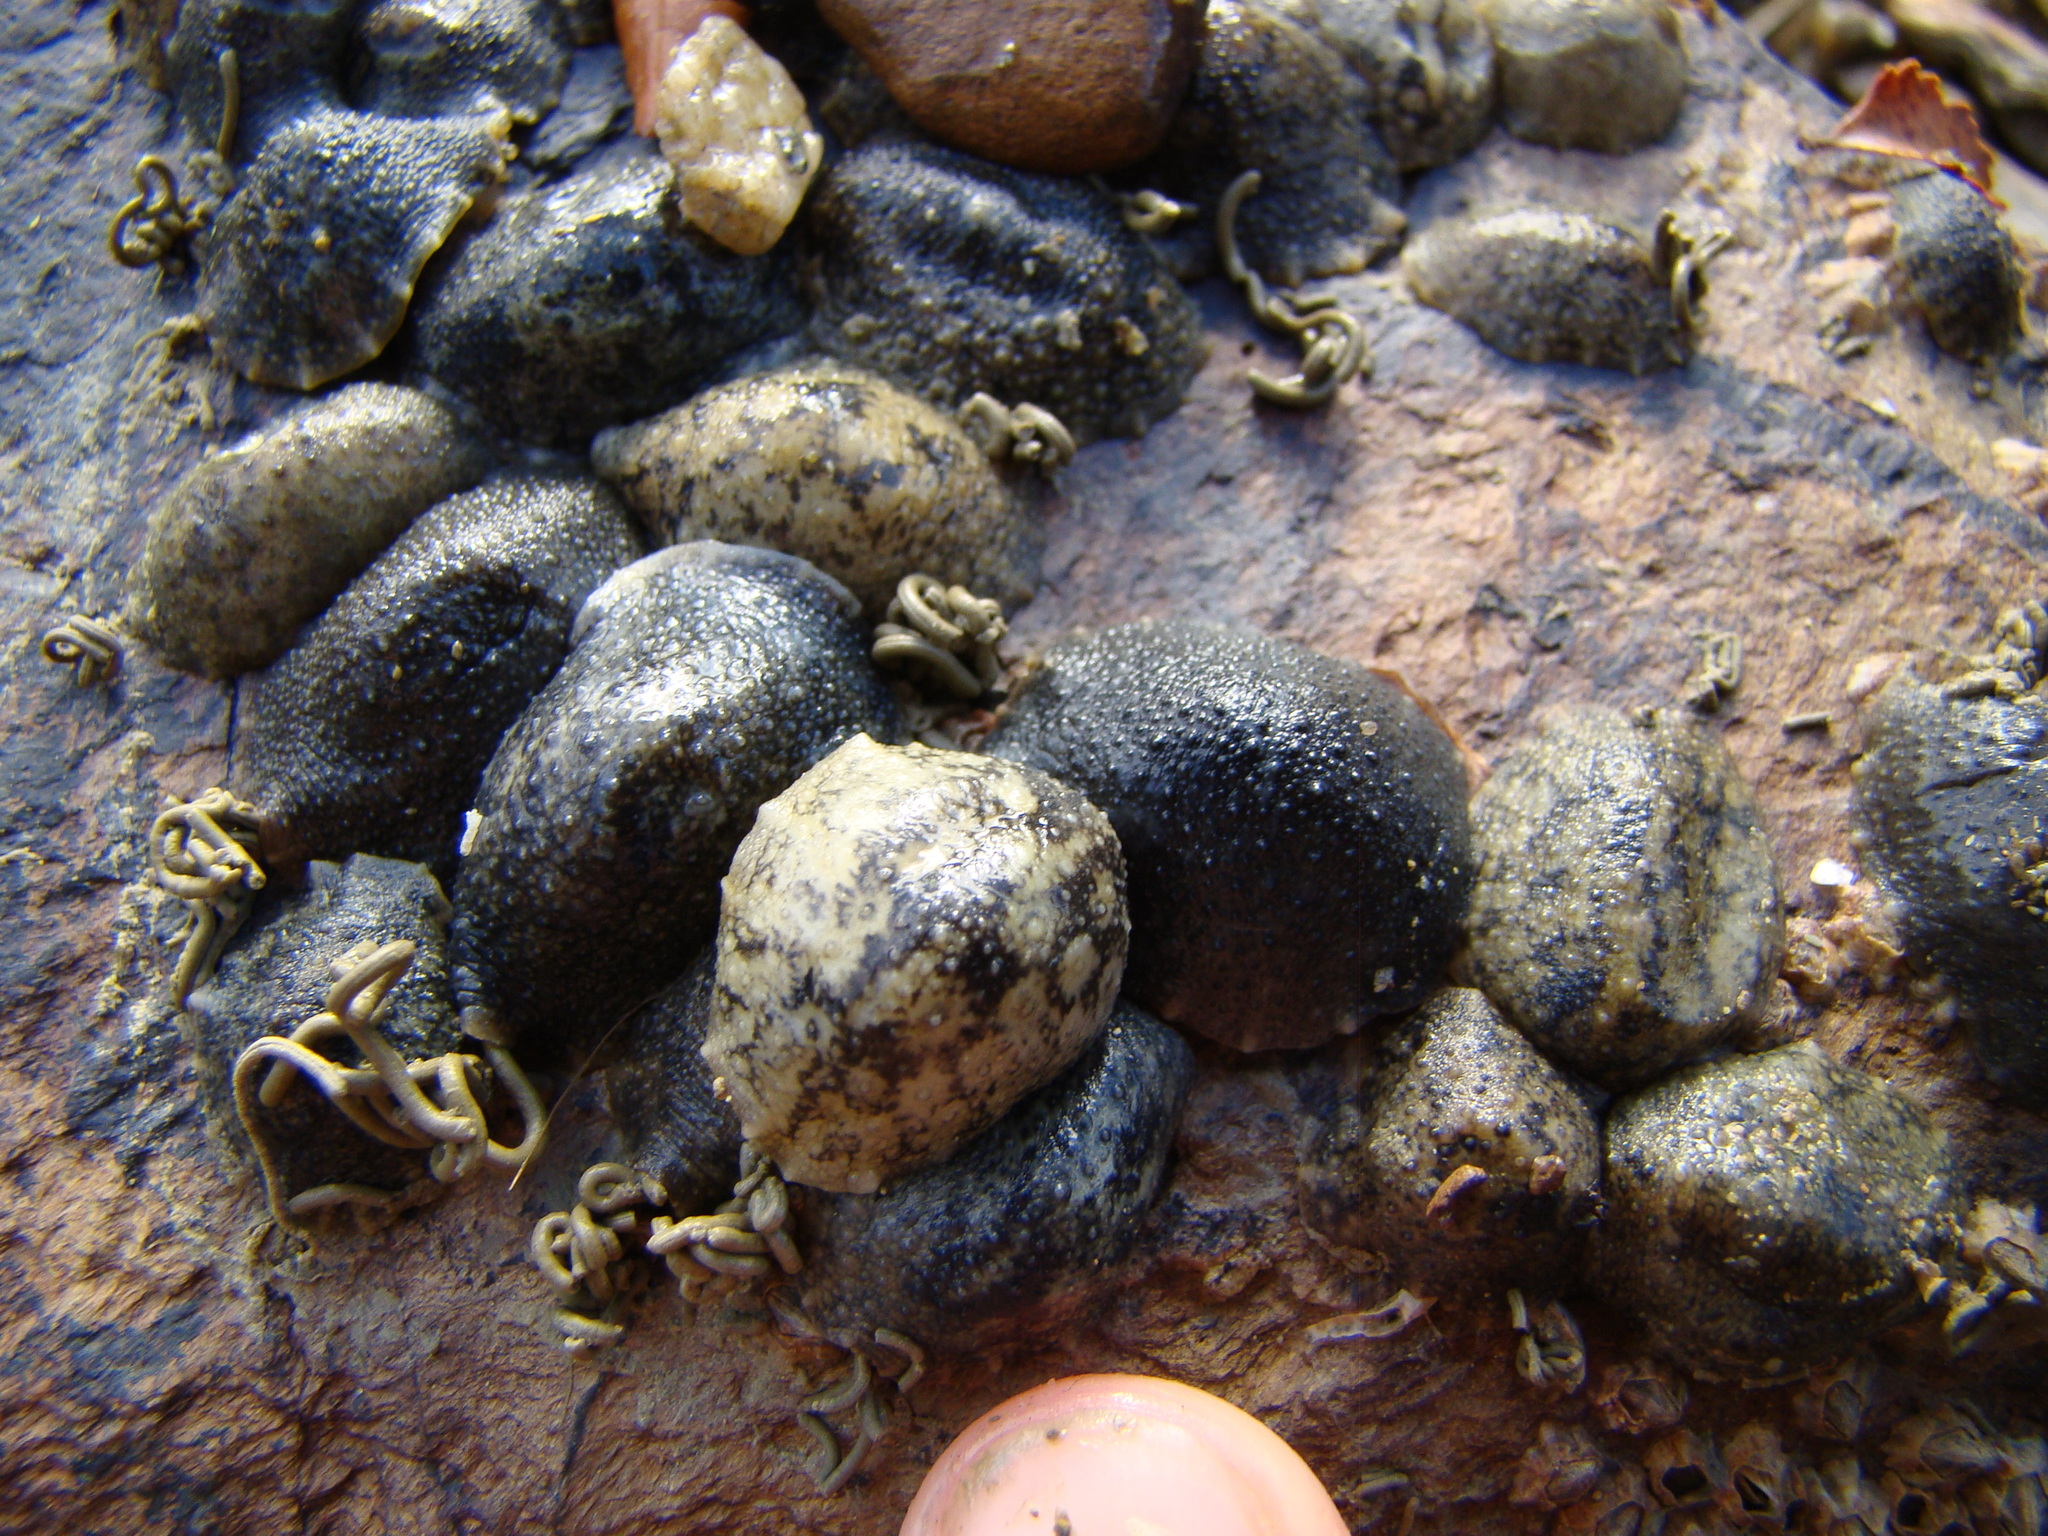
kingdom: Animalia
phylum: Mollusca
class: Gastropoda
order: Systellommatophora
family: Onchidiidae
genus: Onchidella
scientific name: Onchidella nigricans
